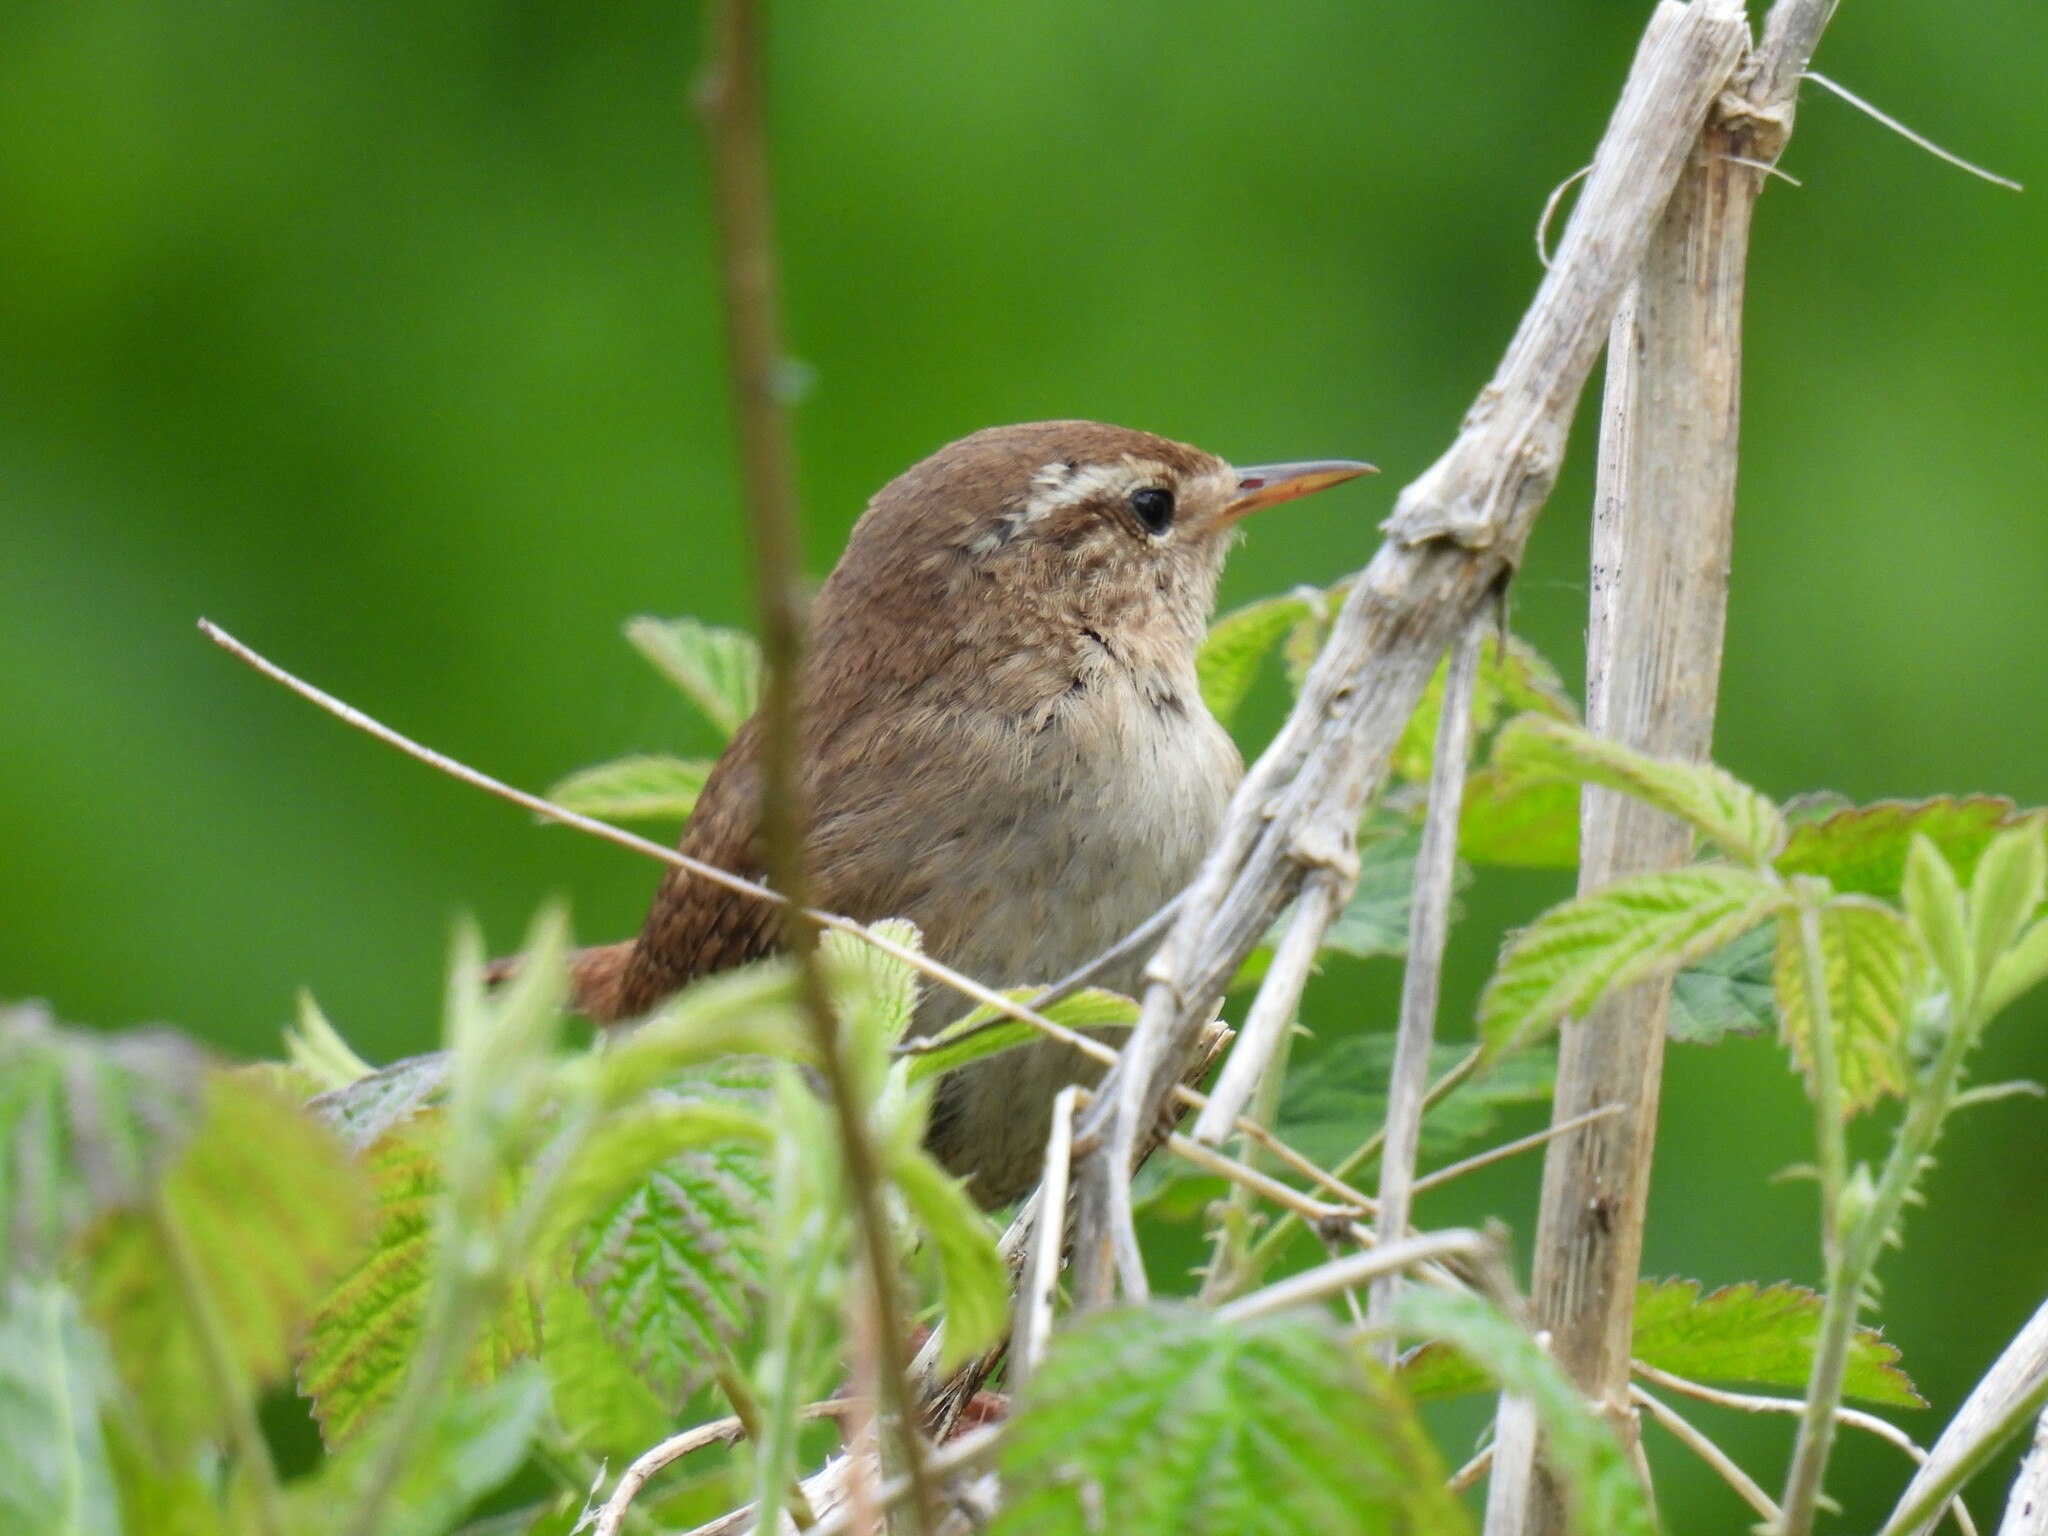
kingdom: Animalia
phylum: Chordata
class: Aves
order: Passeriformes
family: Troglodytidae
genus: Troglodytes
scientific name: Troglodytes troglodytes
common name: Eurasian wren
